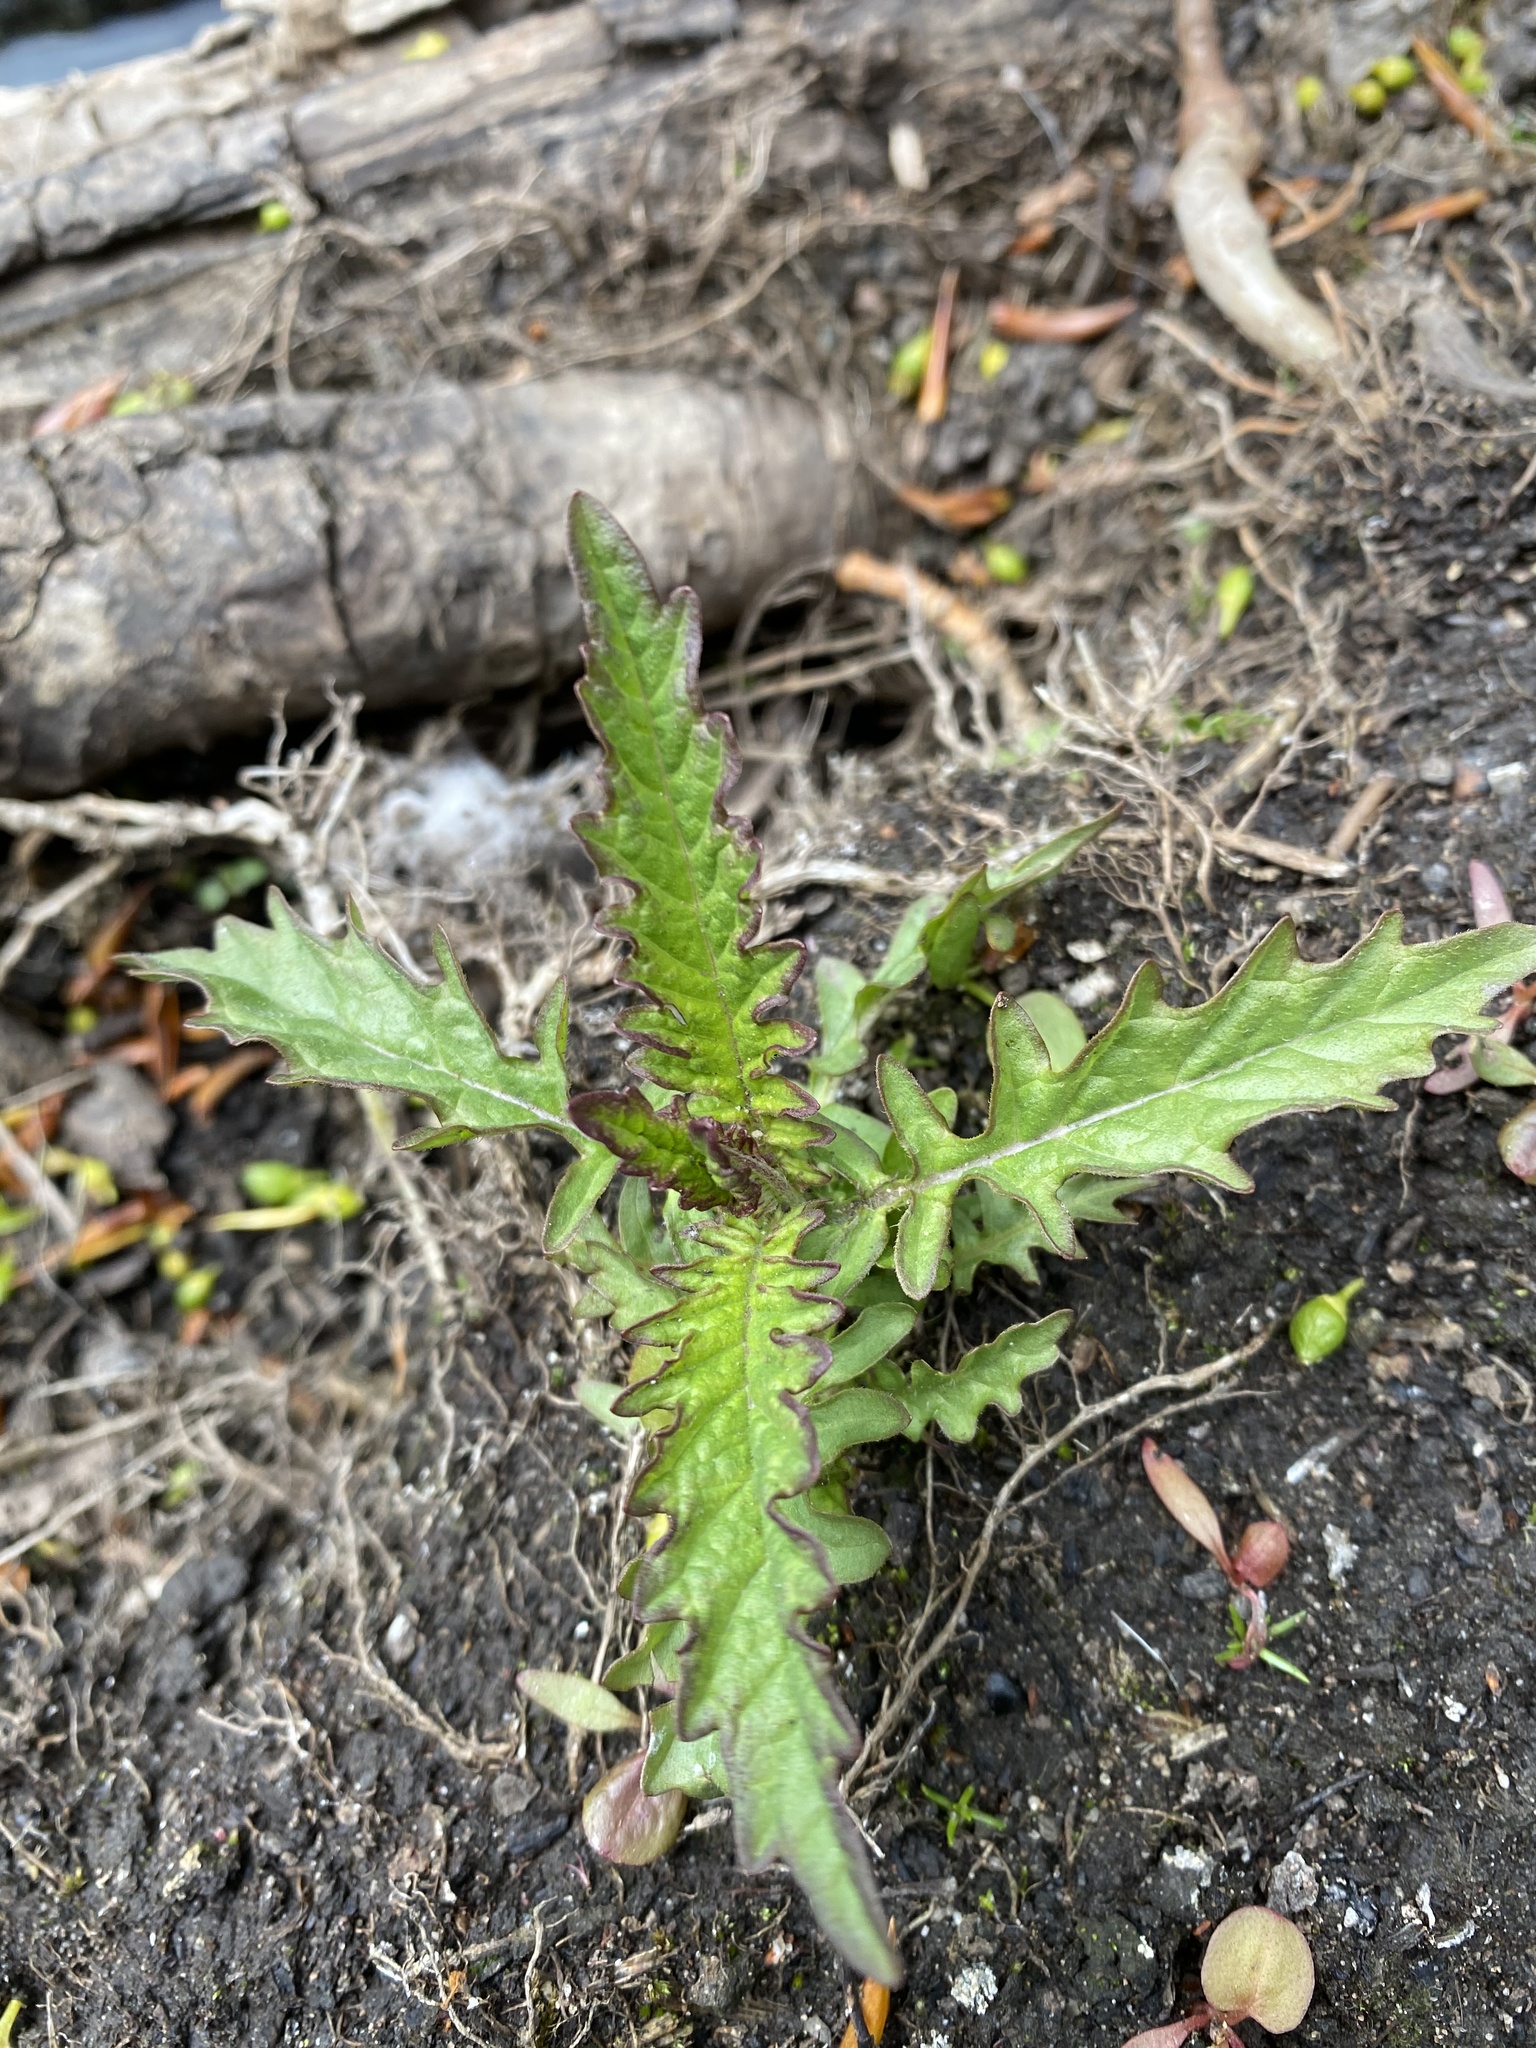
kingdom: Plantae
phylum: Tracheophyta
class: Magnoliopsida
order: Lamiales
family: Lamiaceae
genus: Lycopus
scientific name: Lycopus europaeus
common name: European bugleweed
